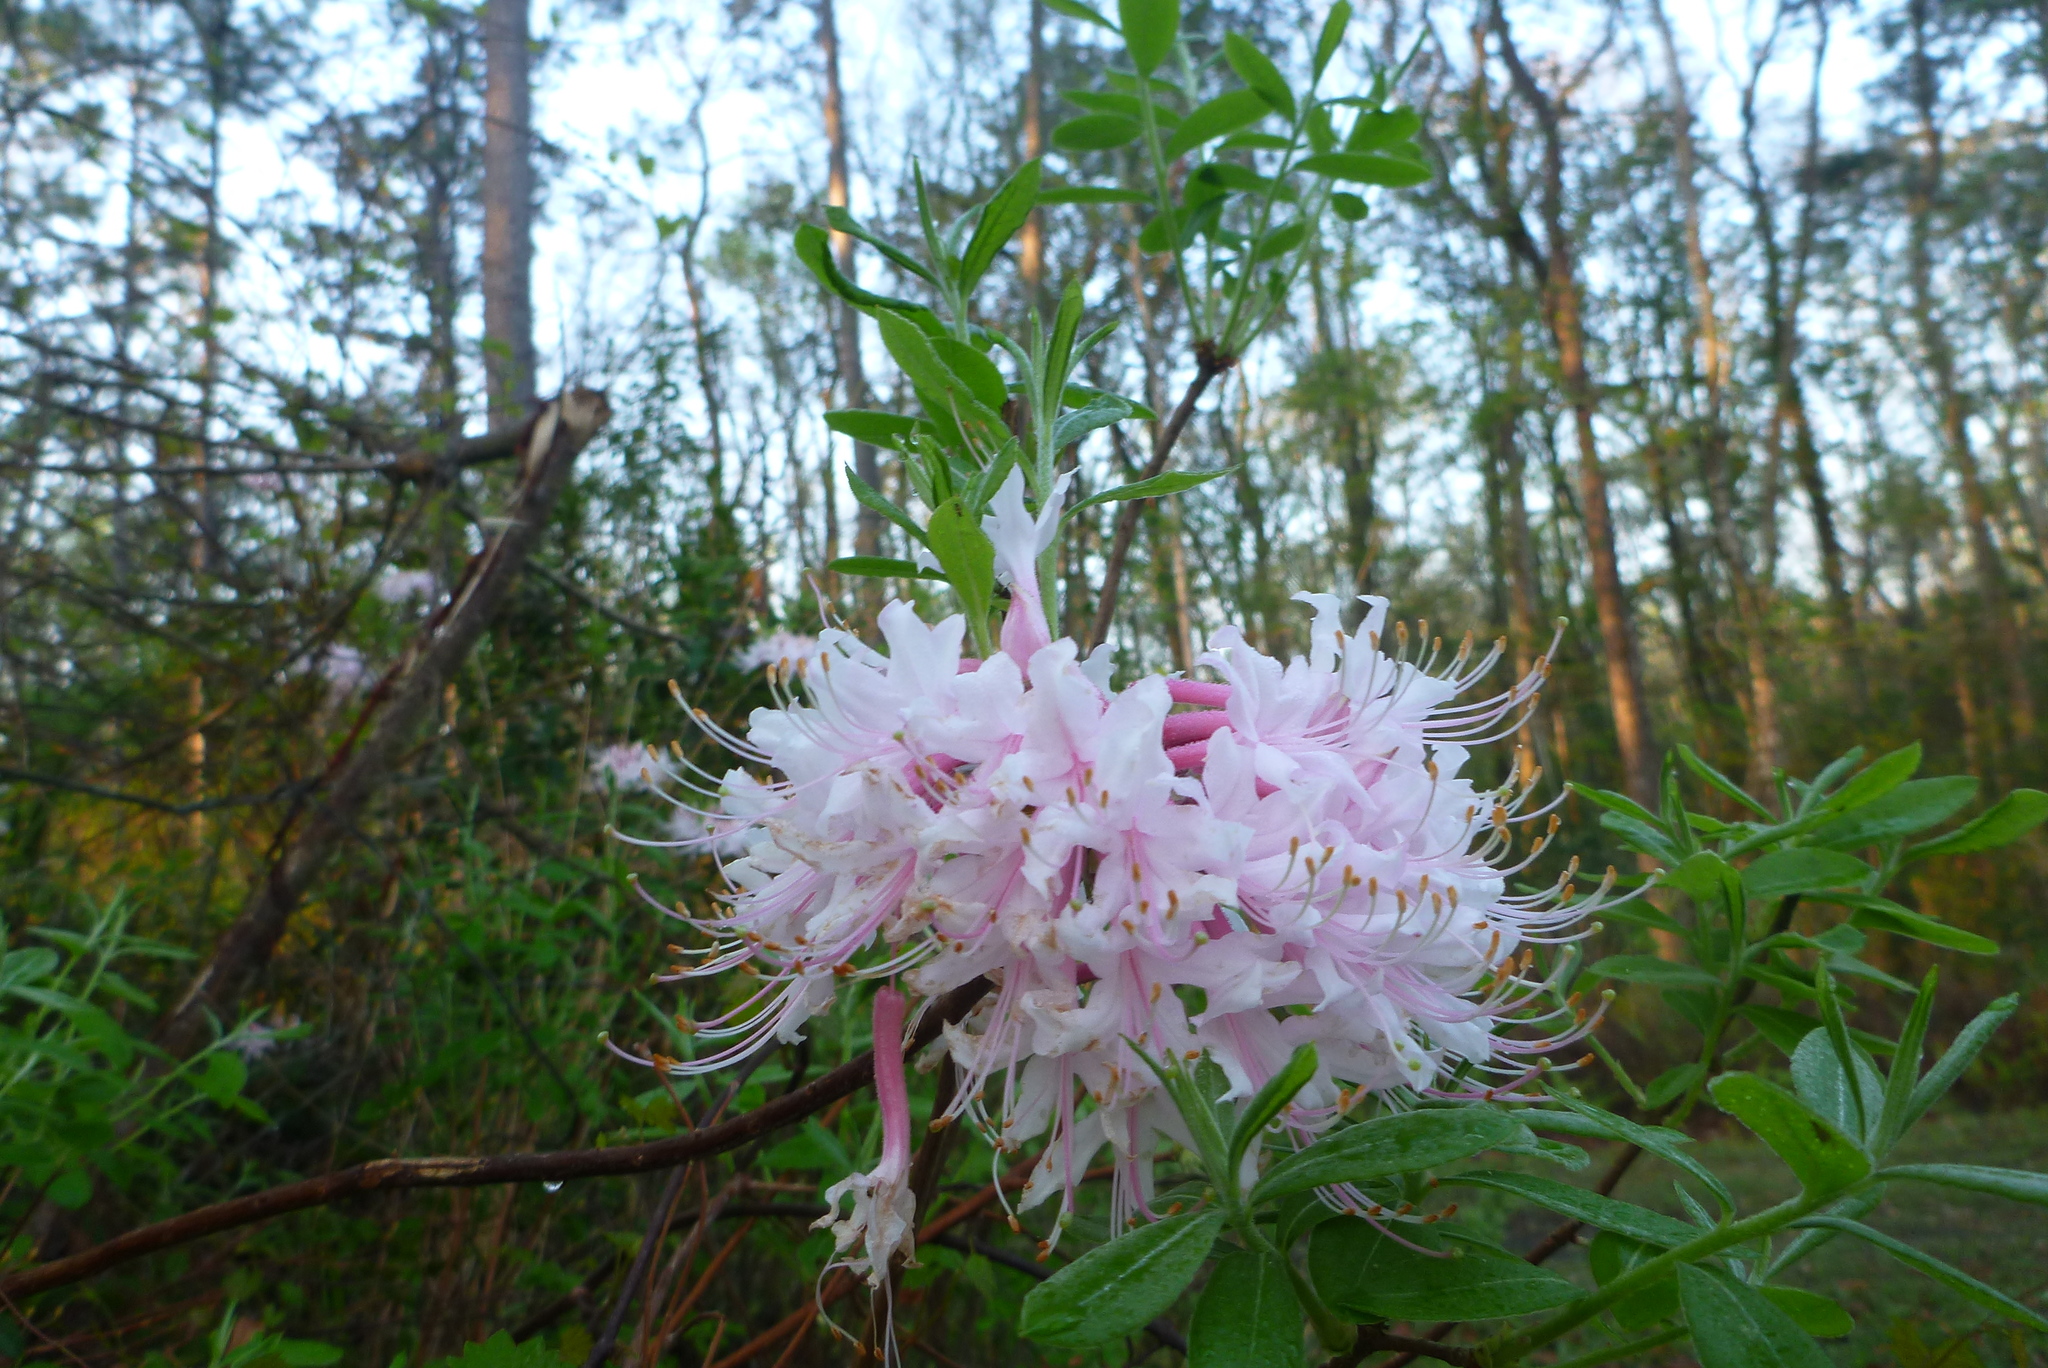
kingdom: Plantae
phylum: Tracheophyta
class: Magnoliopsida
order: Ericales
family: Ericaceae
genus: Rhododendron
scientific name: Rhododendron canescens
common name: Mountain azalea
